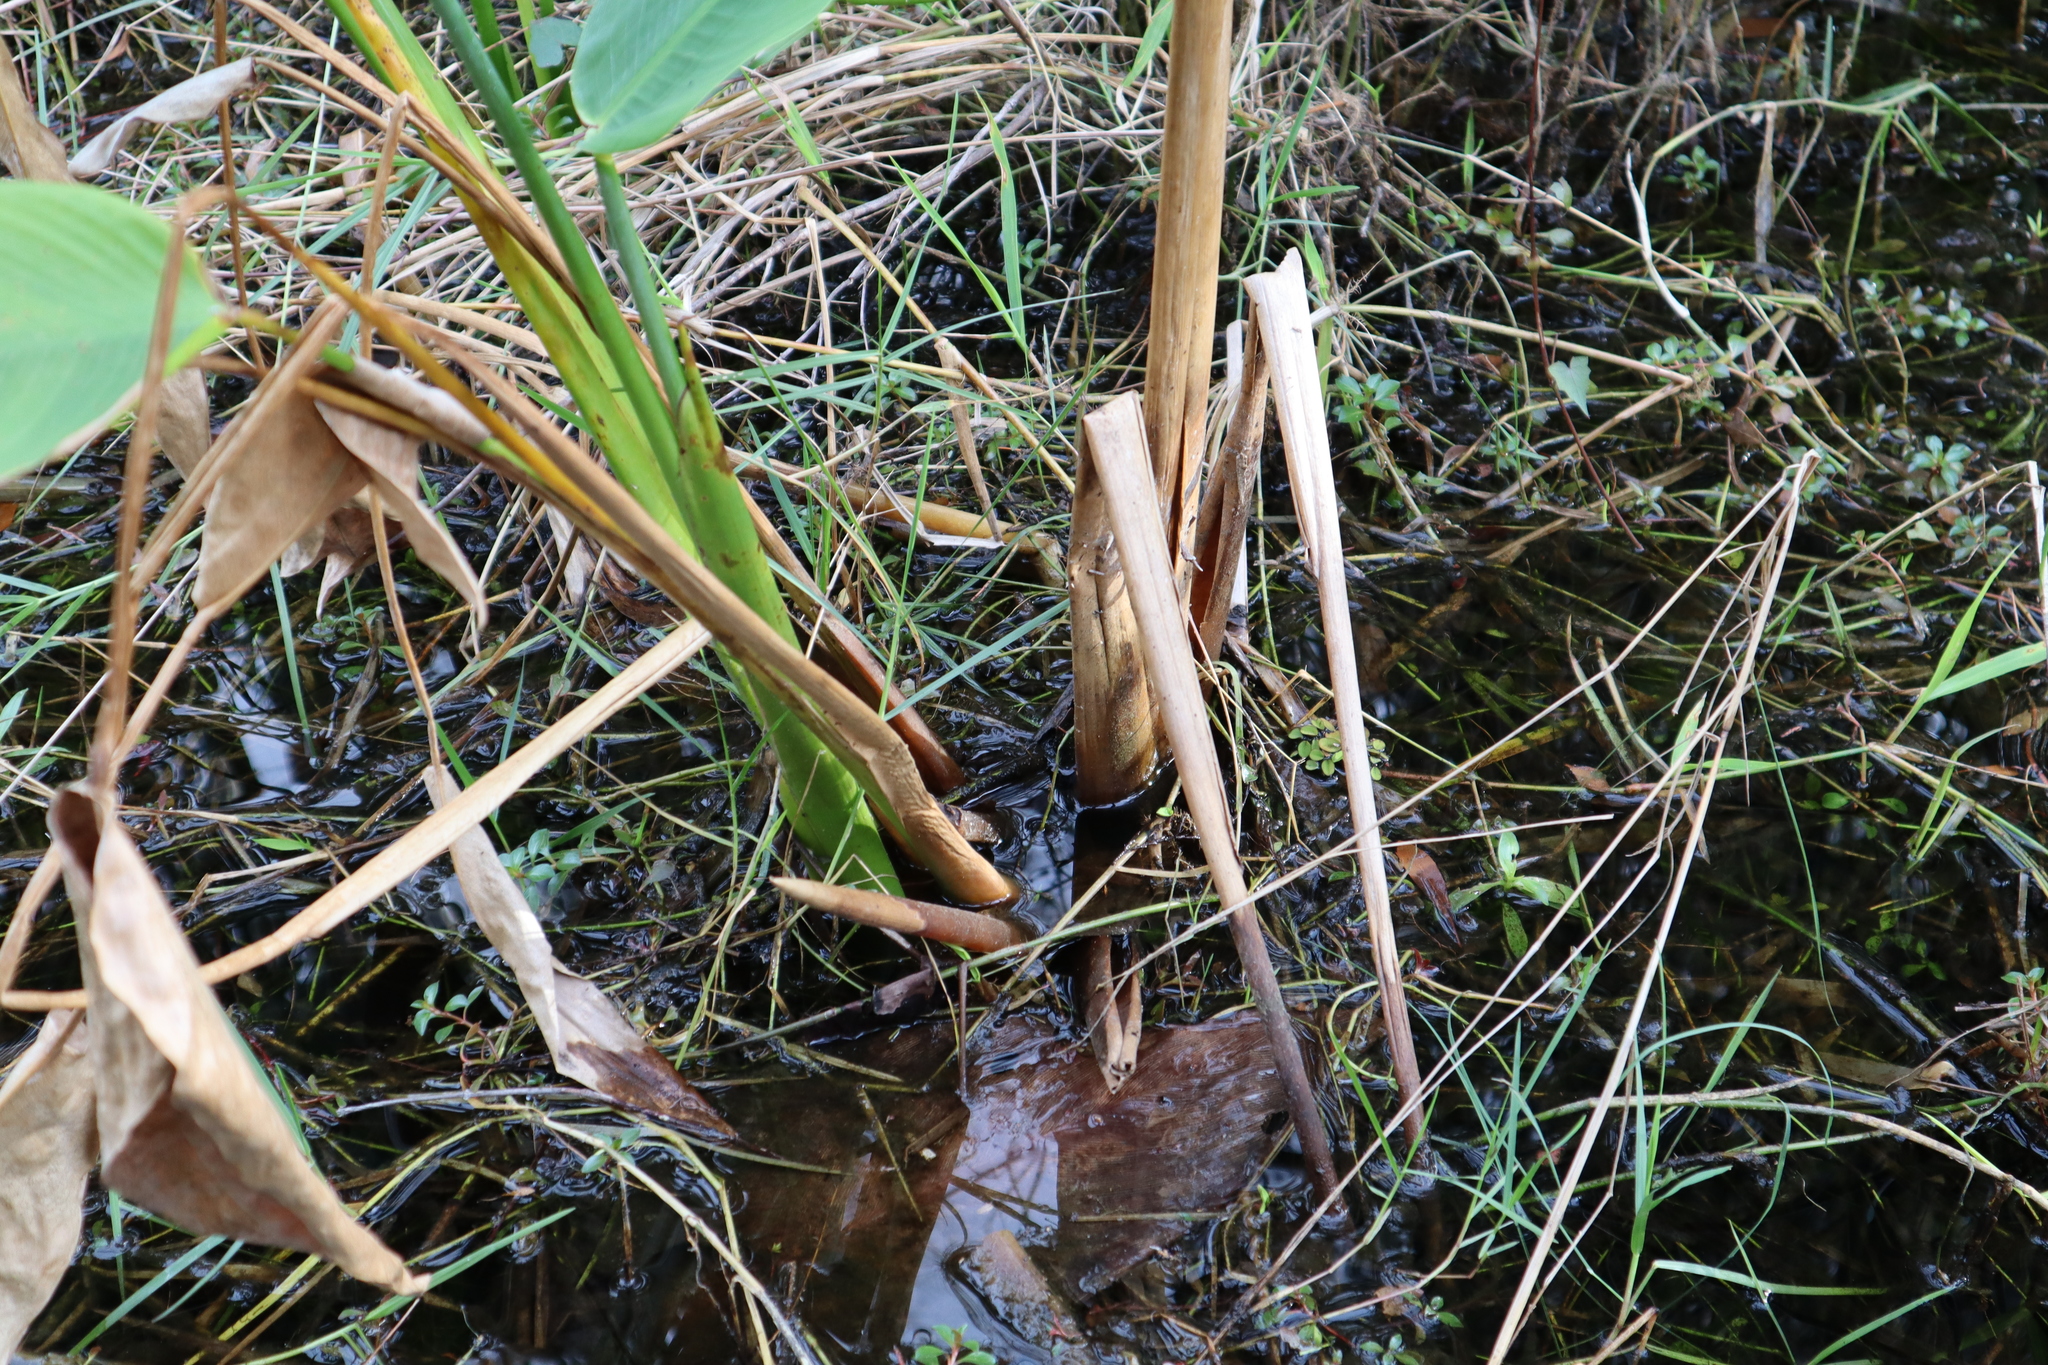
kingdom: Plantae
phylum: Tracheophyta
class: Liliopsida
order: Zingiberales
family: Marantaceae
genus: Thalia
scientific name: Thalia geniculata
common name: Arrowroot
